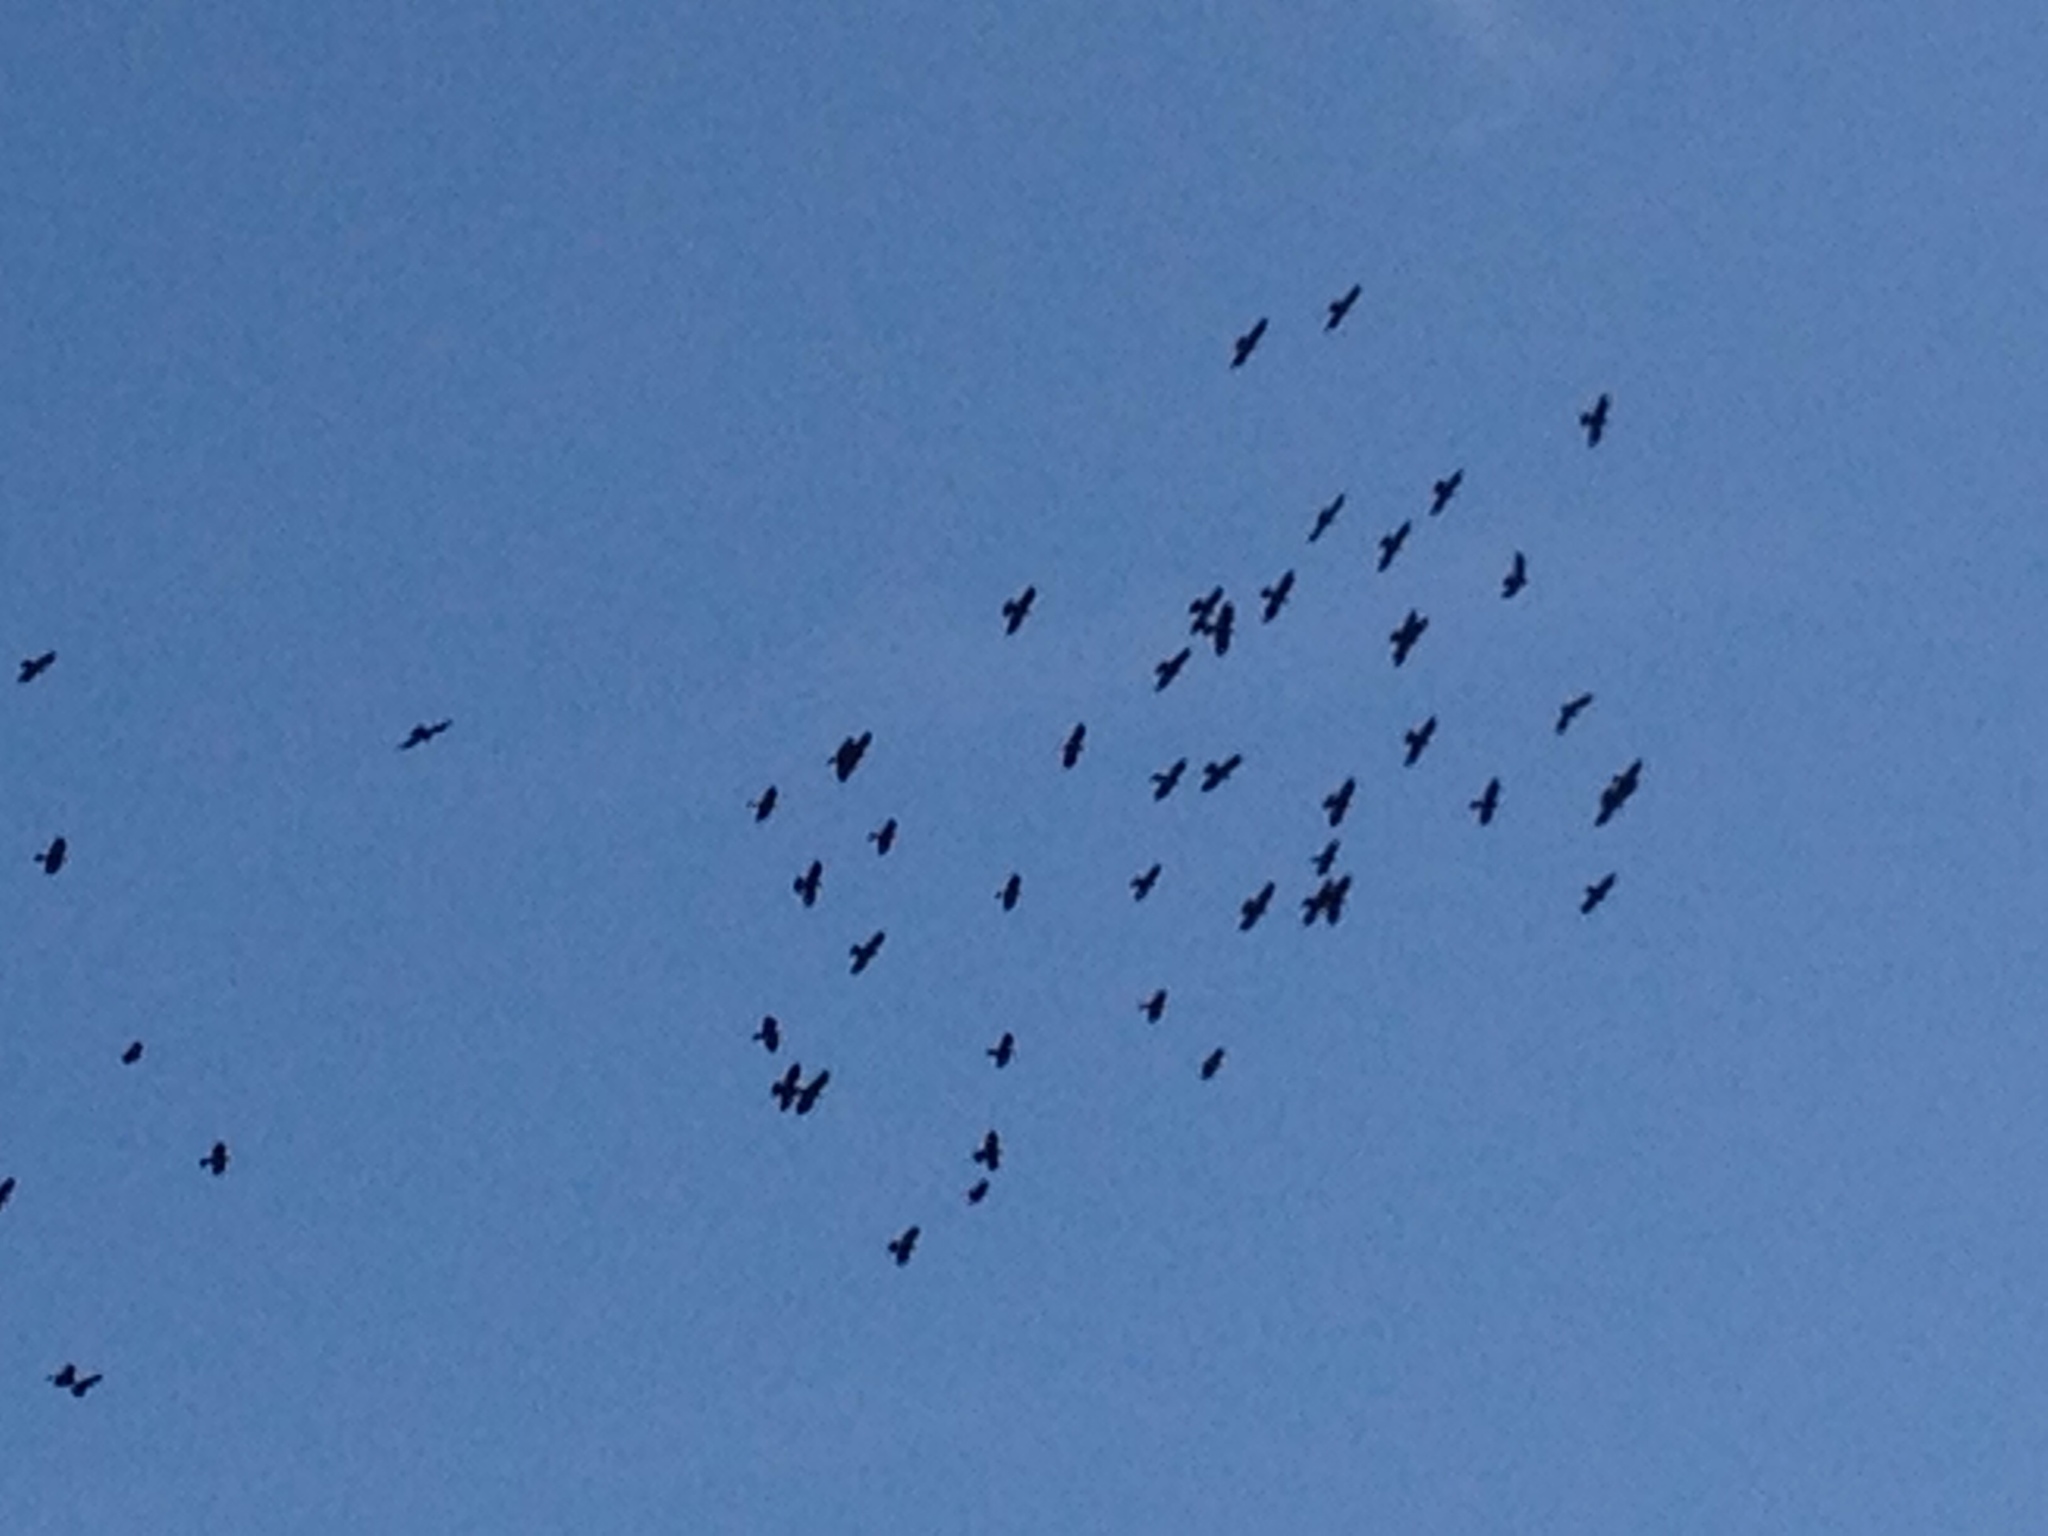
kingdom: Animalia
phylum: Chordata
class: Aves
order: Passeriformes
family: Corvidae
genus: Pyrrhocorax
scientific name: Pyrrhocorax graculus
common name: Alpine chough
